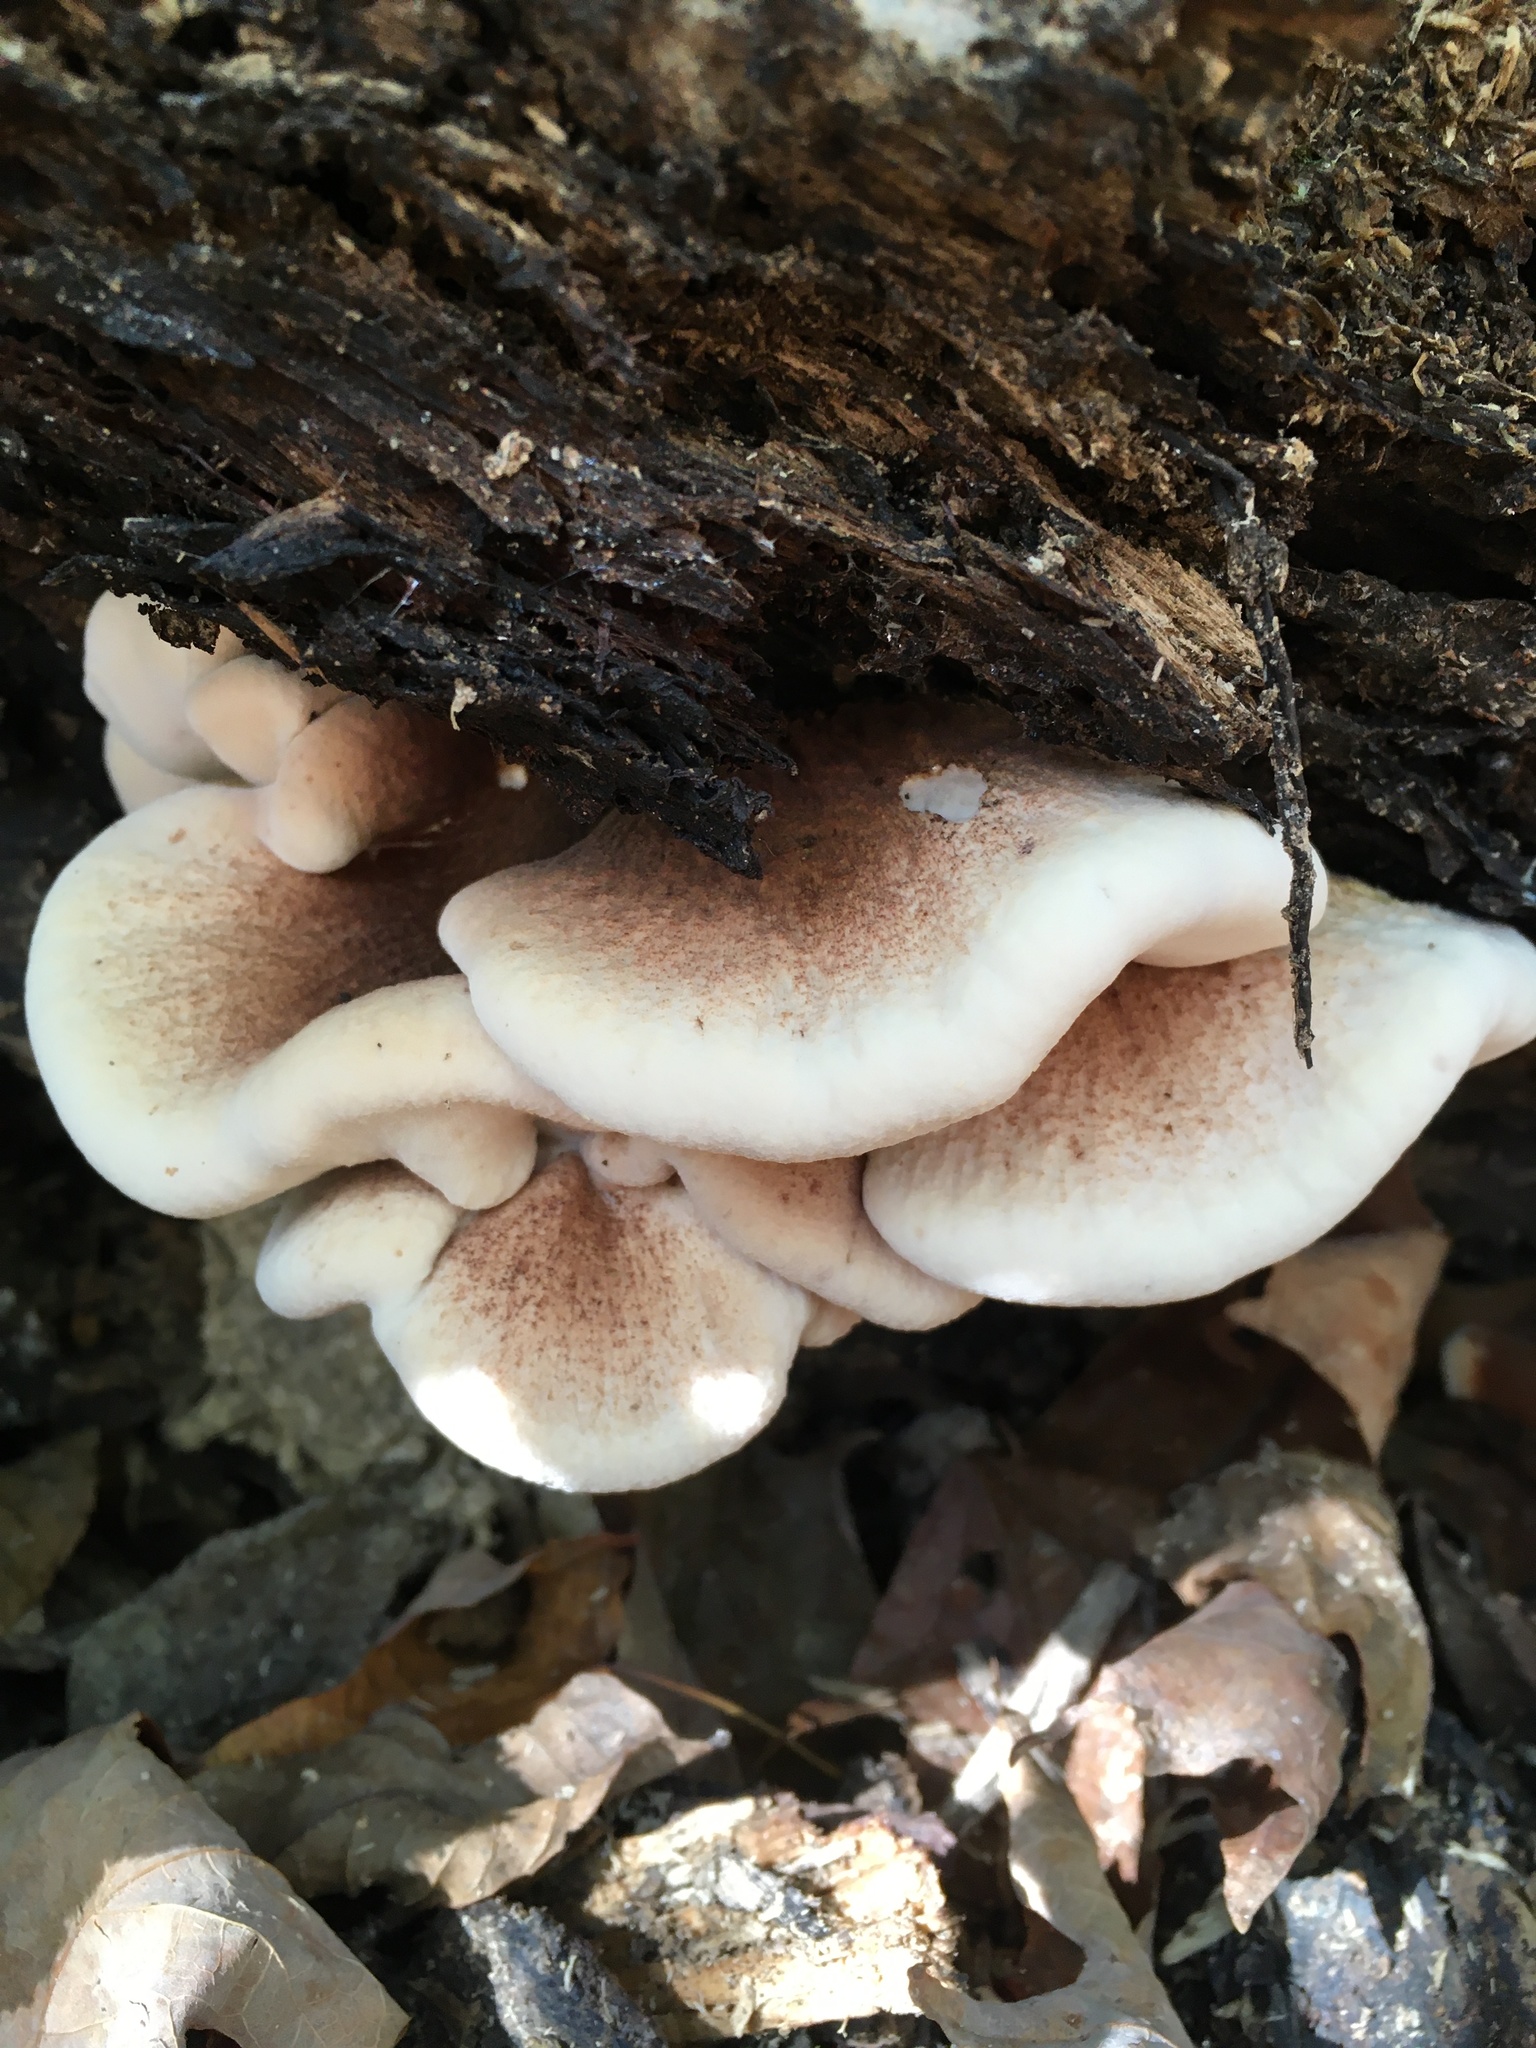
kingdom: Fungi
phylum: Basidiomycota
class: Agaricomycetes
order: Polyporales
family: Ischnodermataceae
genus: Ischnoderma
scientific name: Ischnoderma resinosum
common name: Resinous polypore
